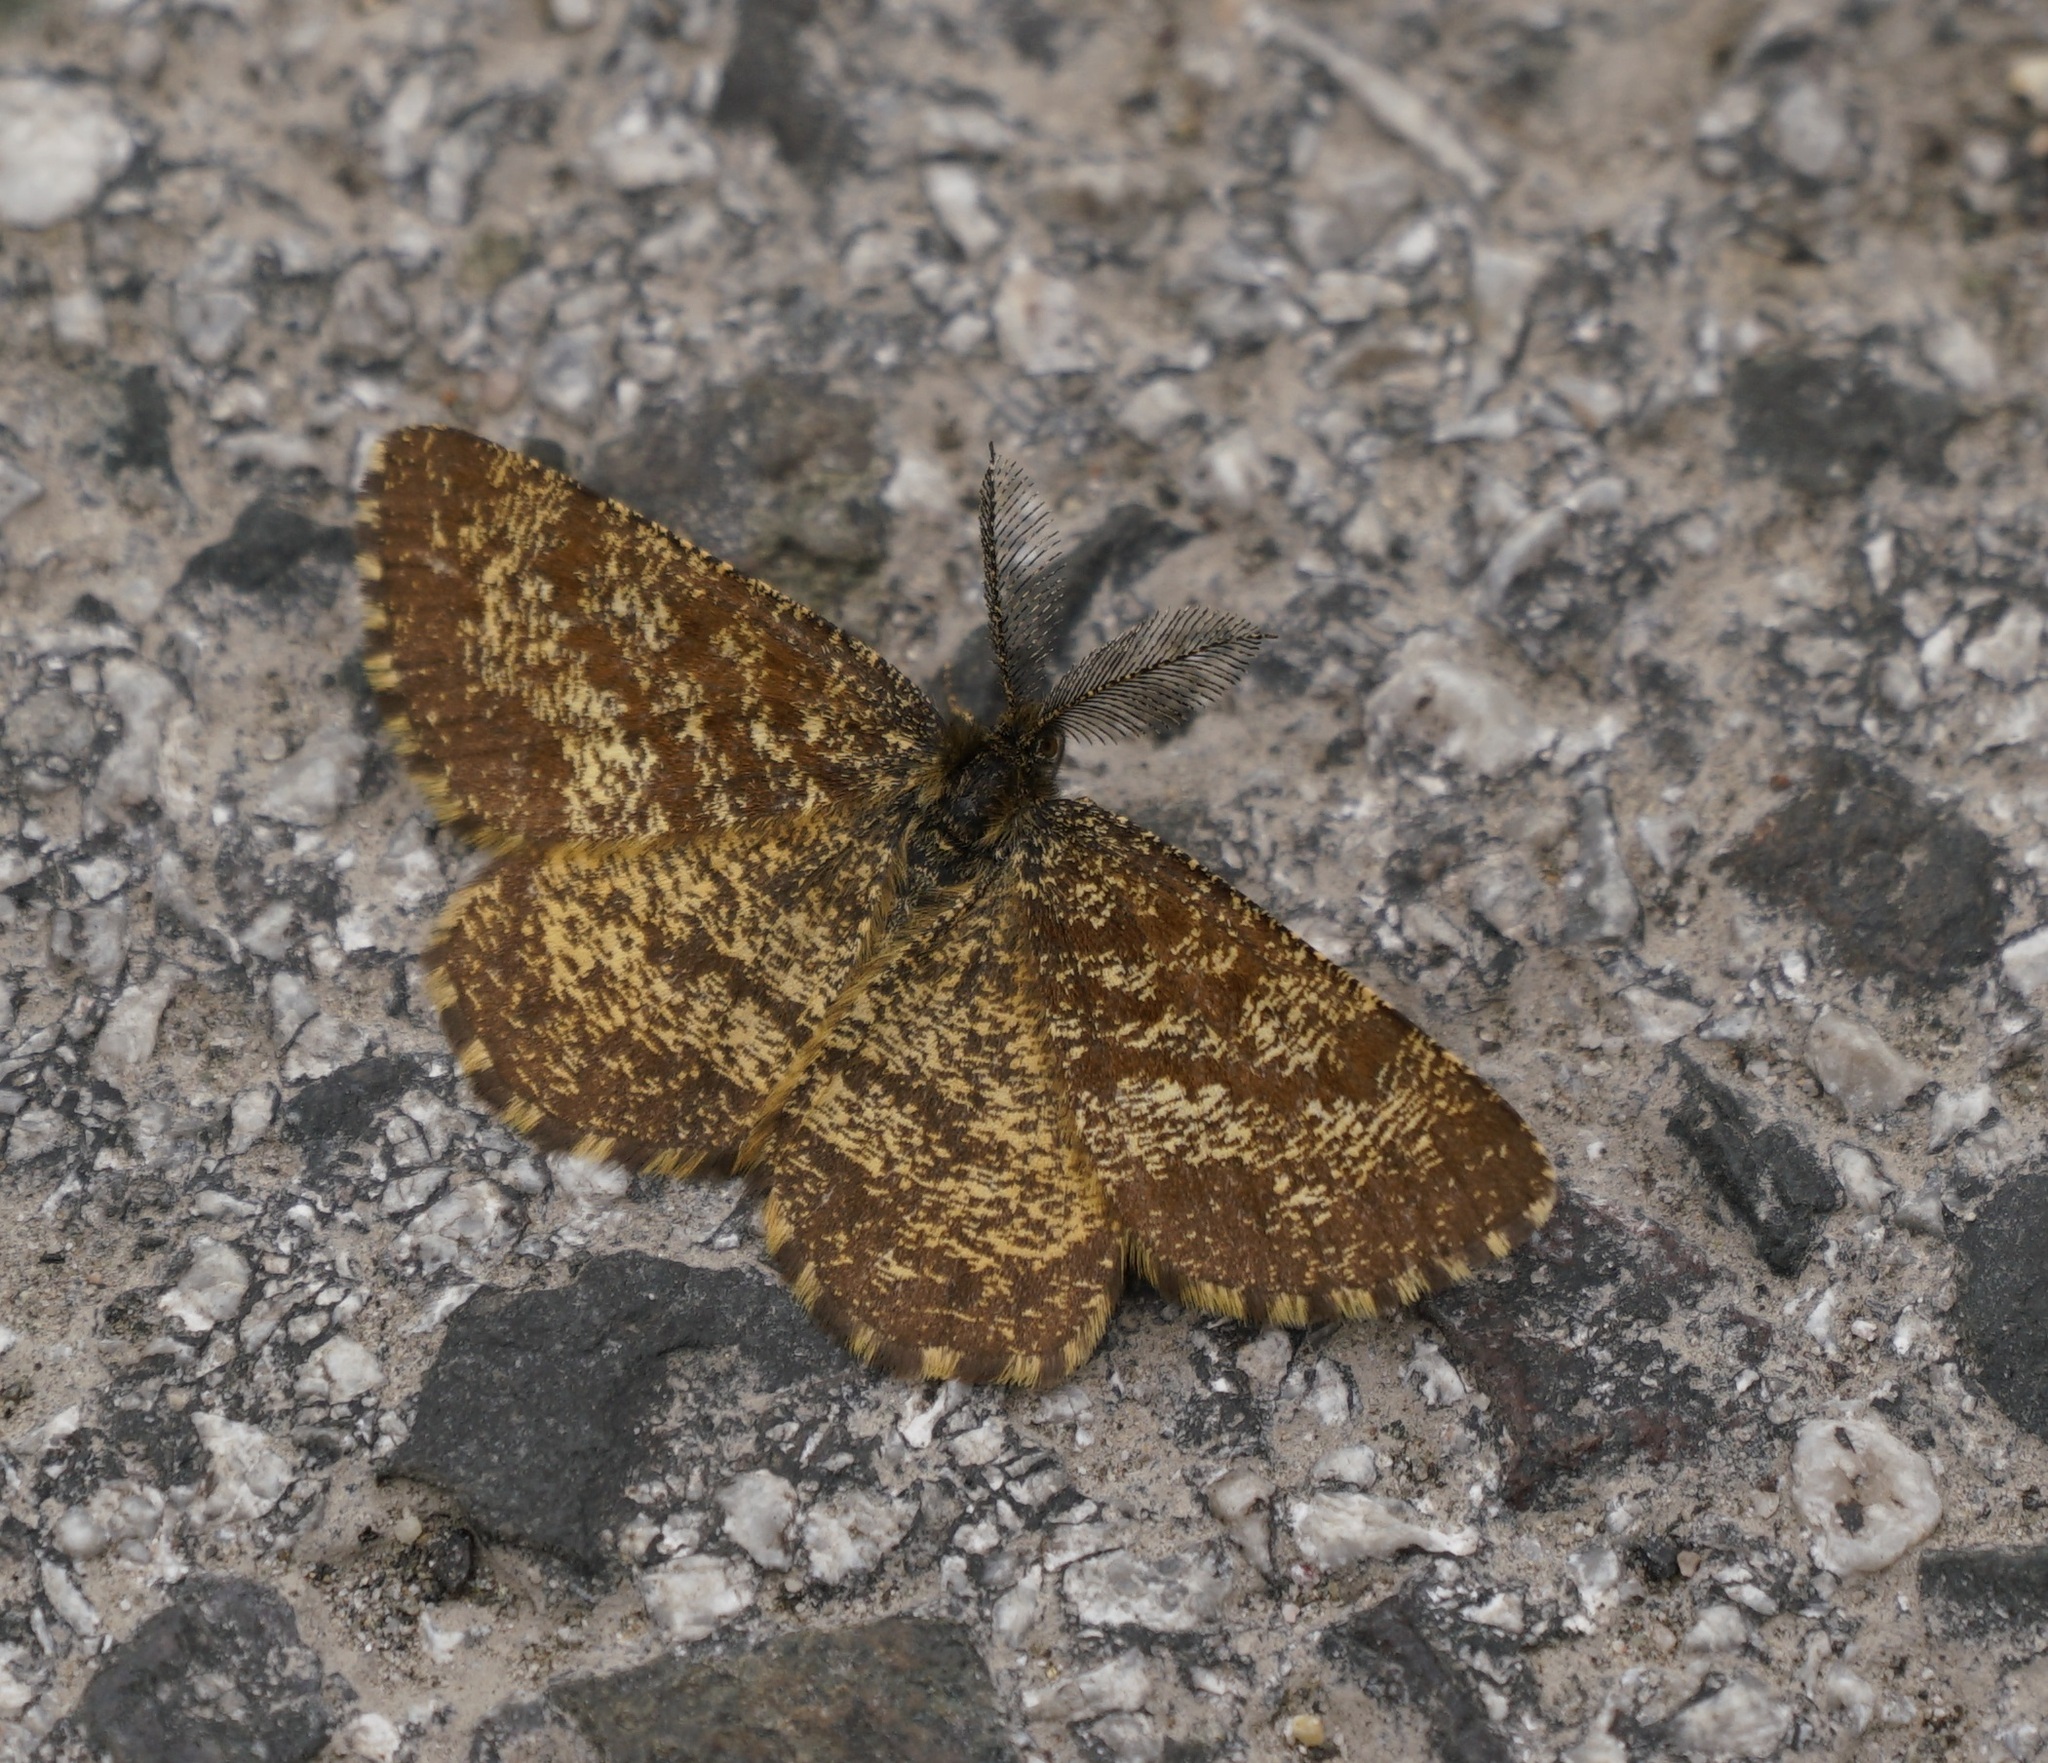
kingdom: Animalia
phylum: Arthropoda
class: Insecta
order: Lepidoptera
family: Geometridae
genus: Ematurga
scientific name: Ematurga atomaria
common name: Common heath
